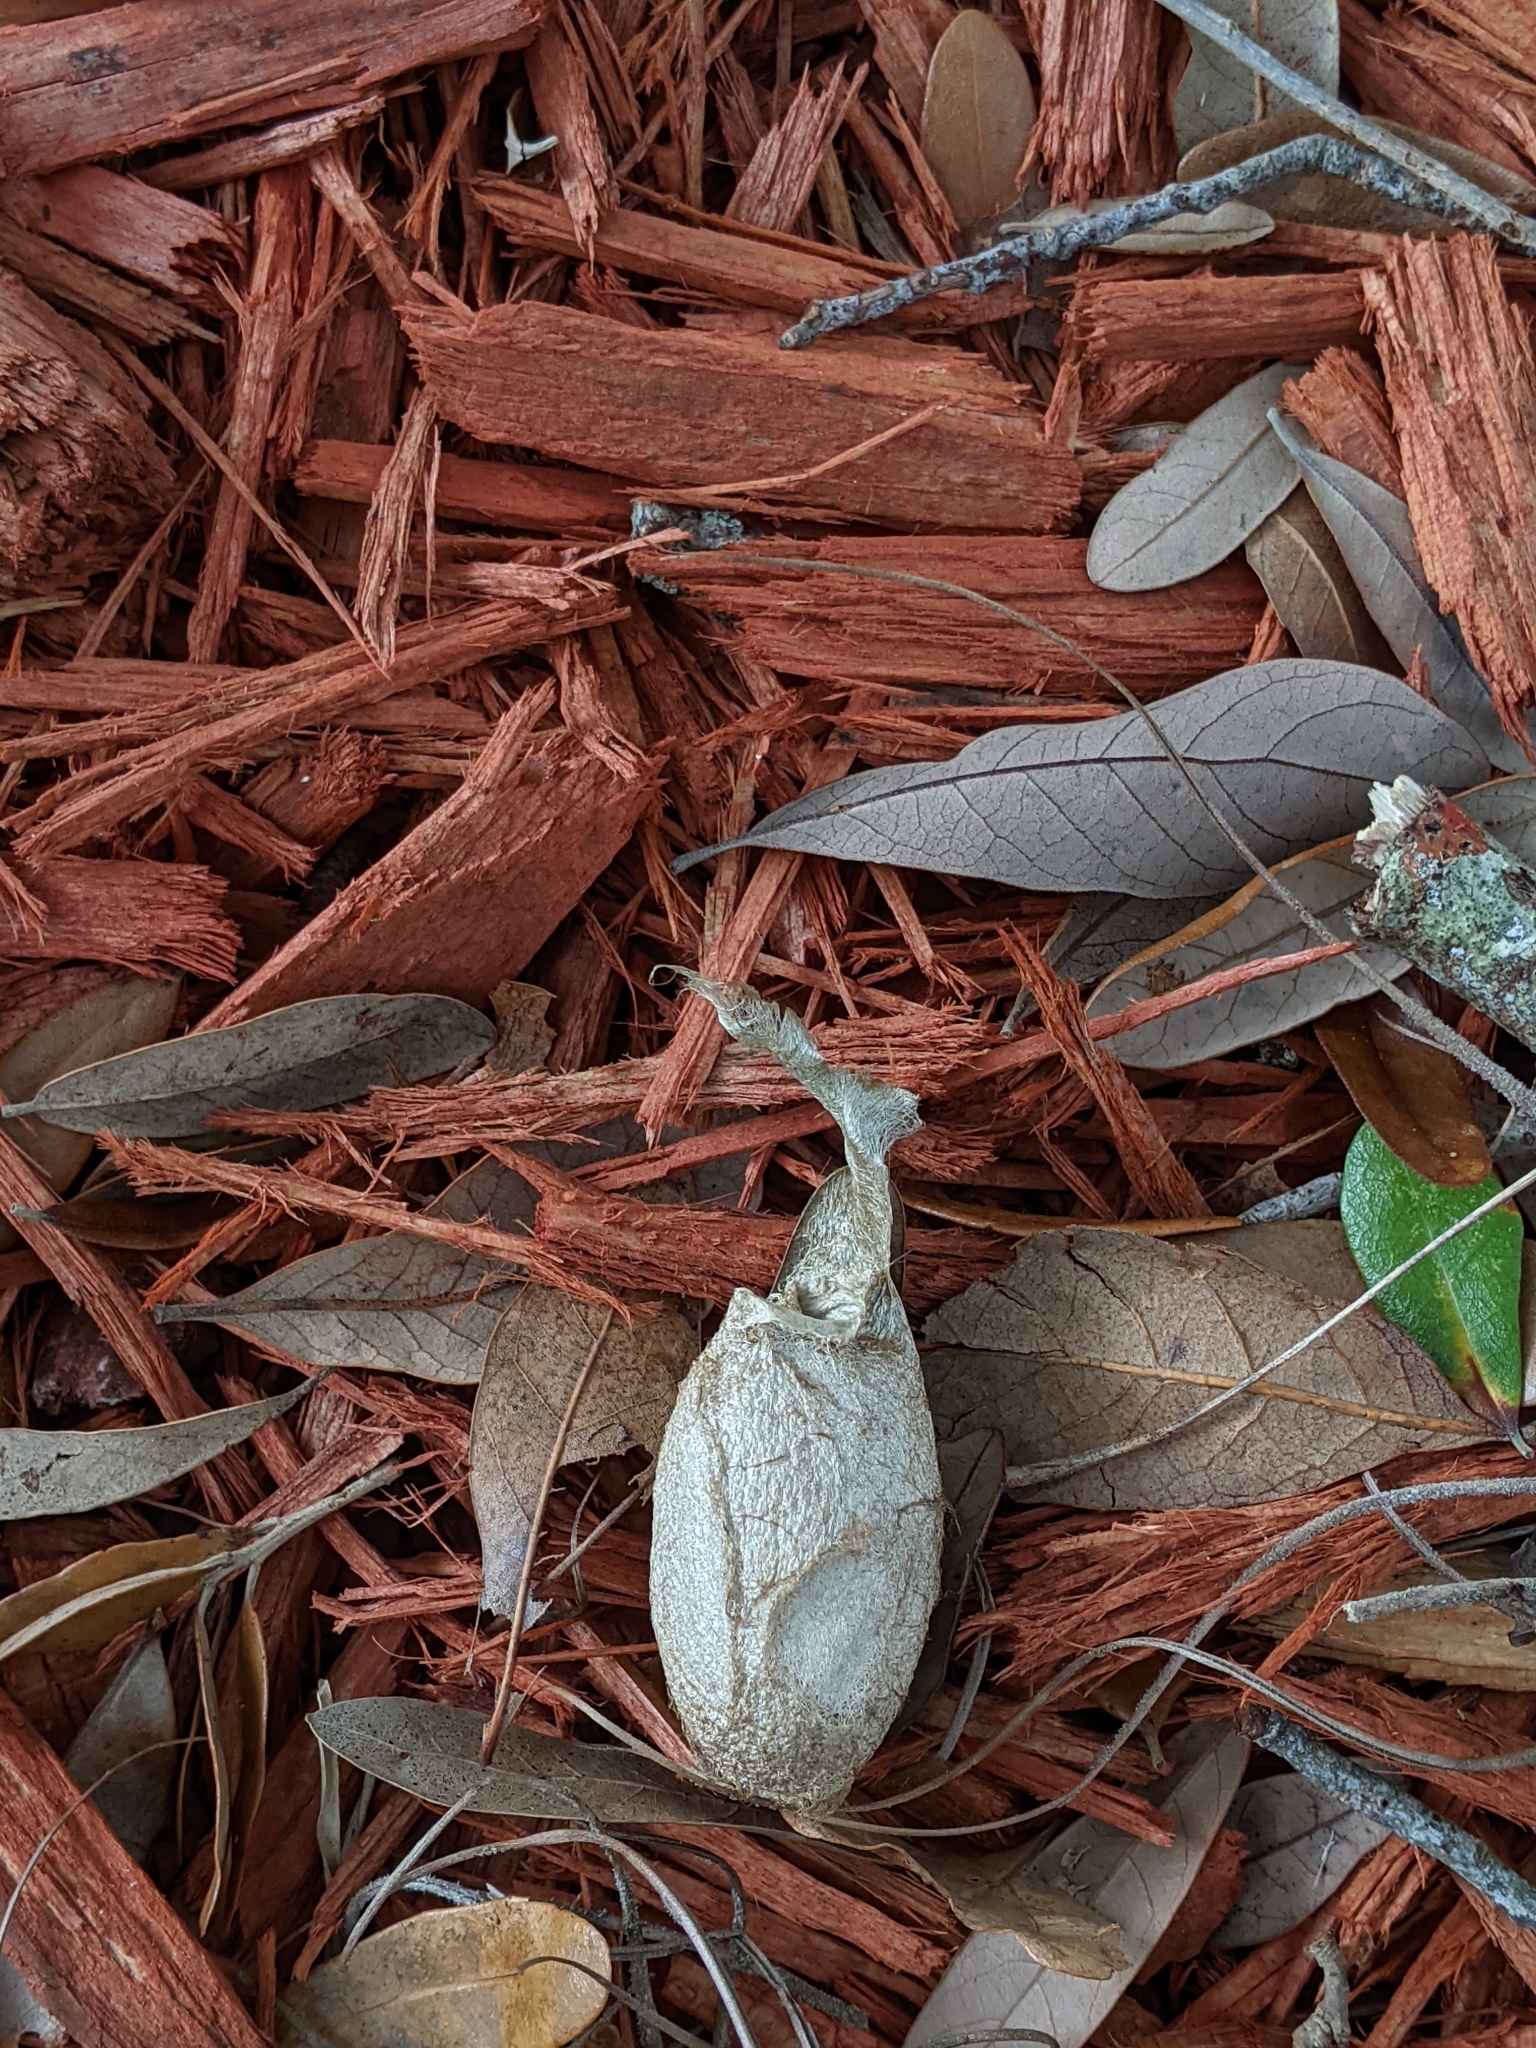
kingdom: Animalia
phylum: Arthropoda
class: Insecta
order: Lepidoptera
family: Saturniidae
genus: Antheraea
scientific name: Antheraea polyphemus
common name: Polyphemus moth
